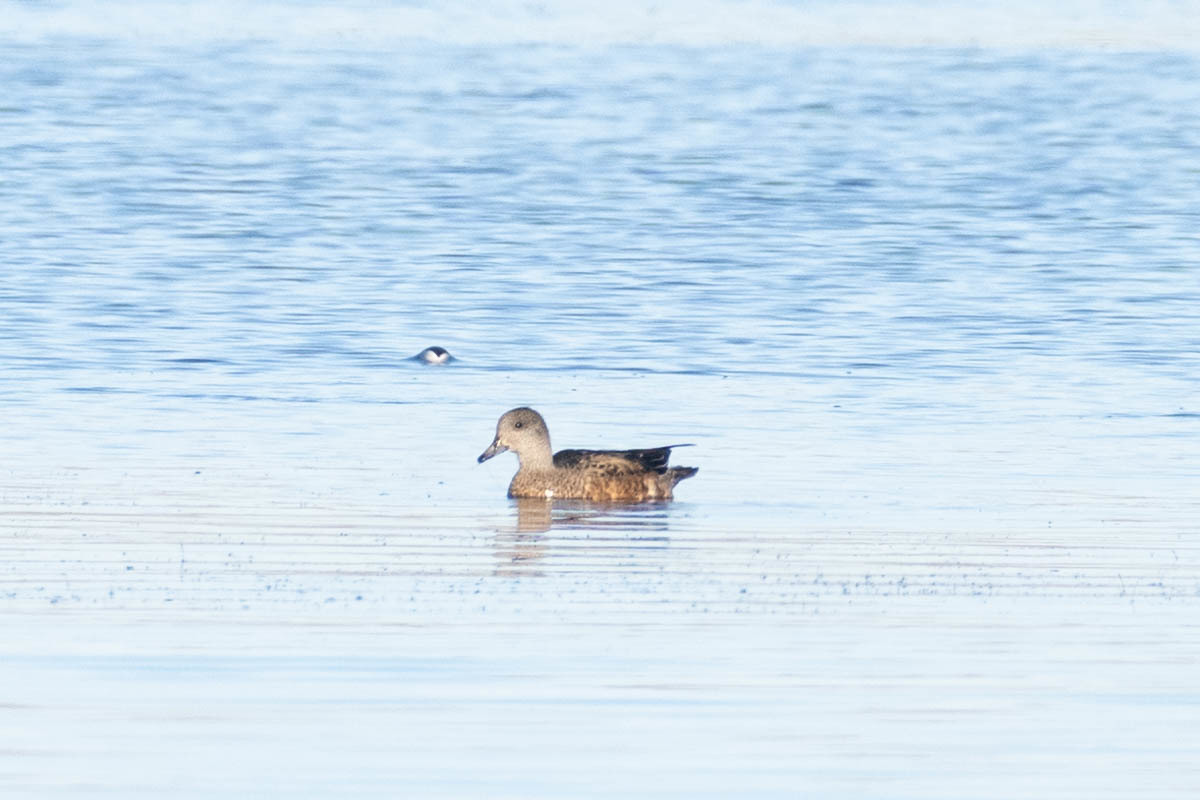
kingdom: Animalia
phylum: Chordata
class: Aves
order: Anseriformes
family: Anatidae
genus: Mareca
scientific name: Mareca americana
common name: American wigeon
